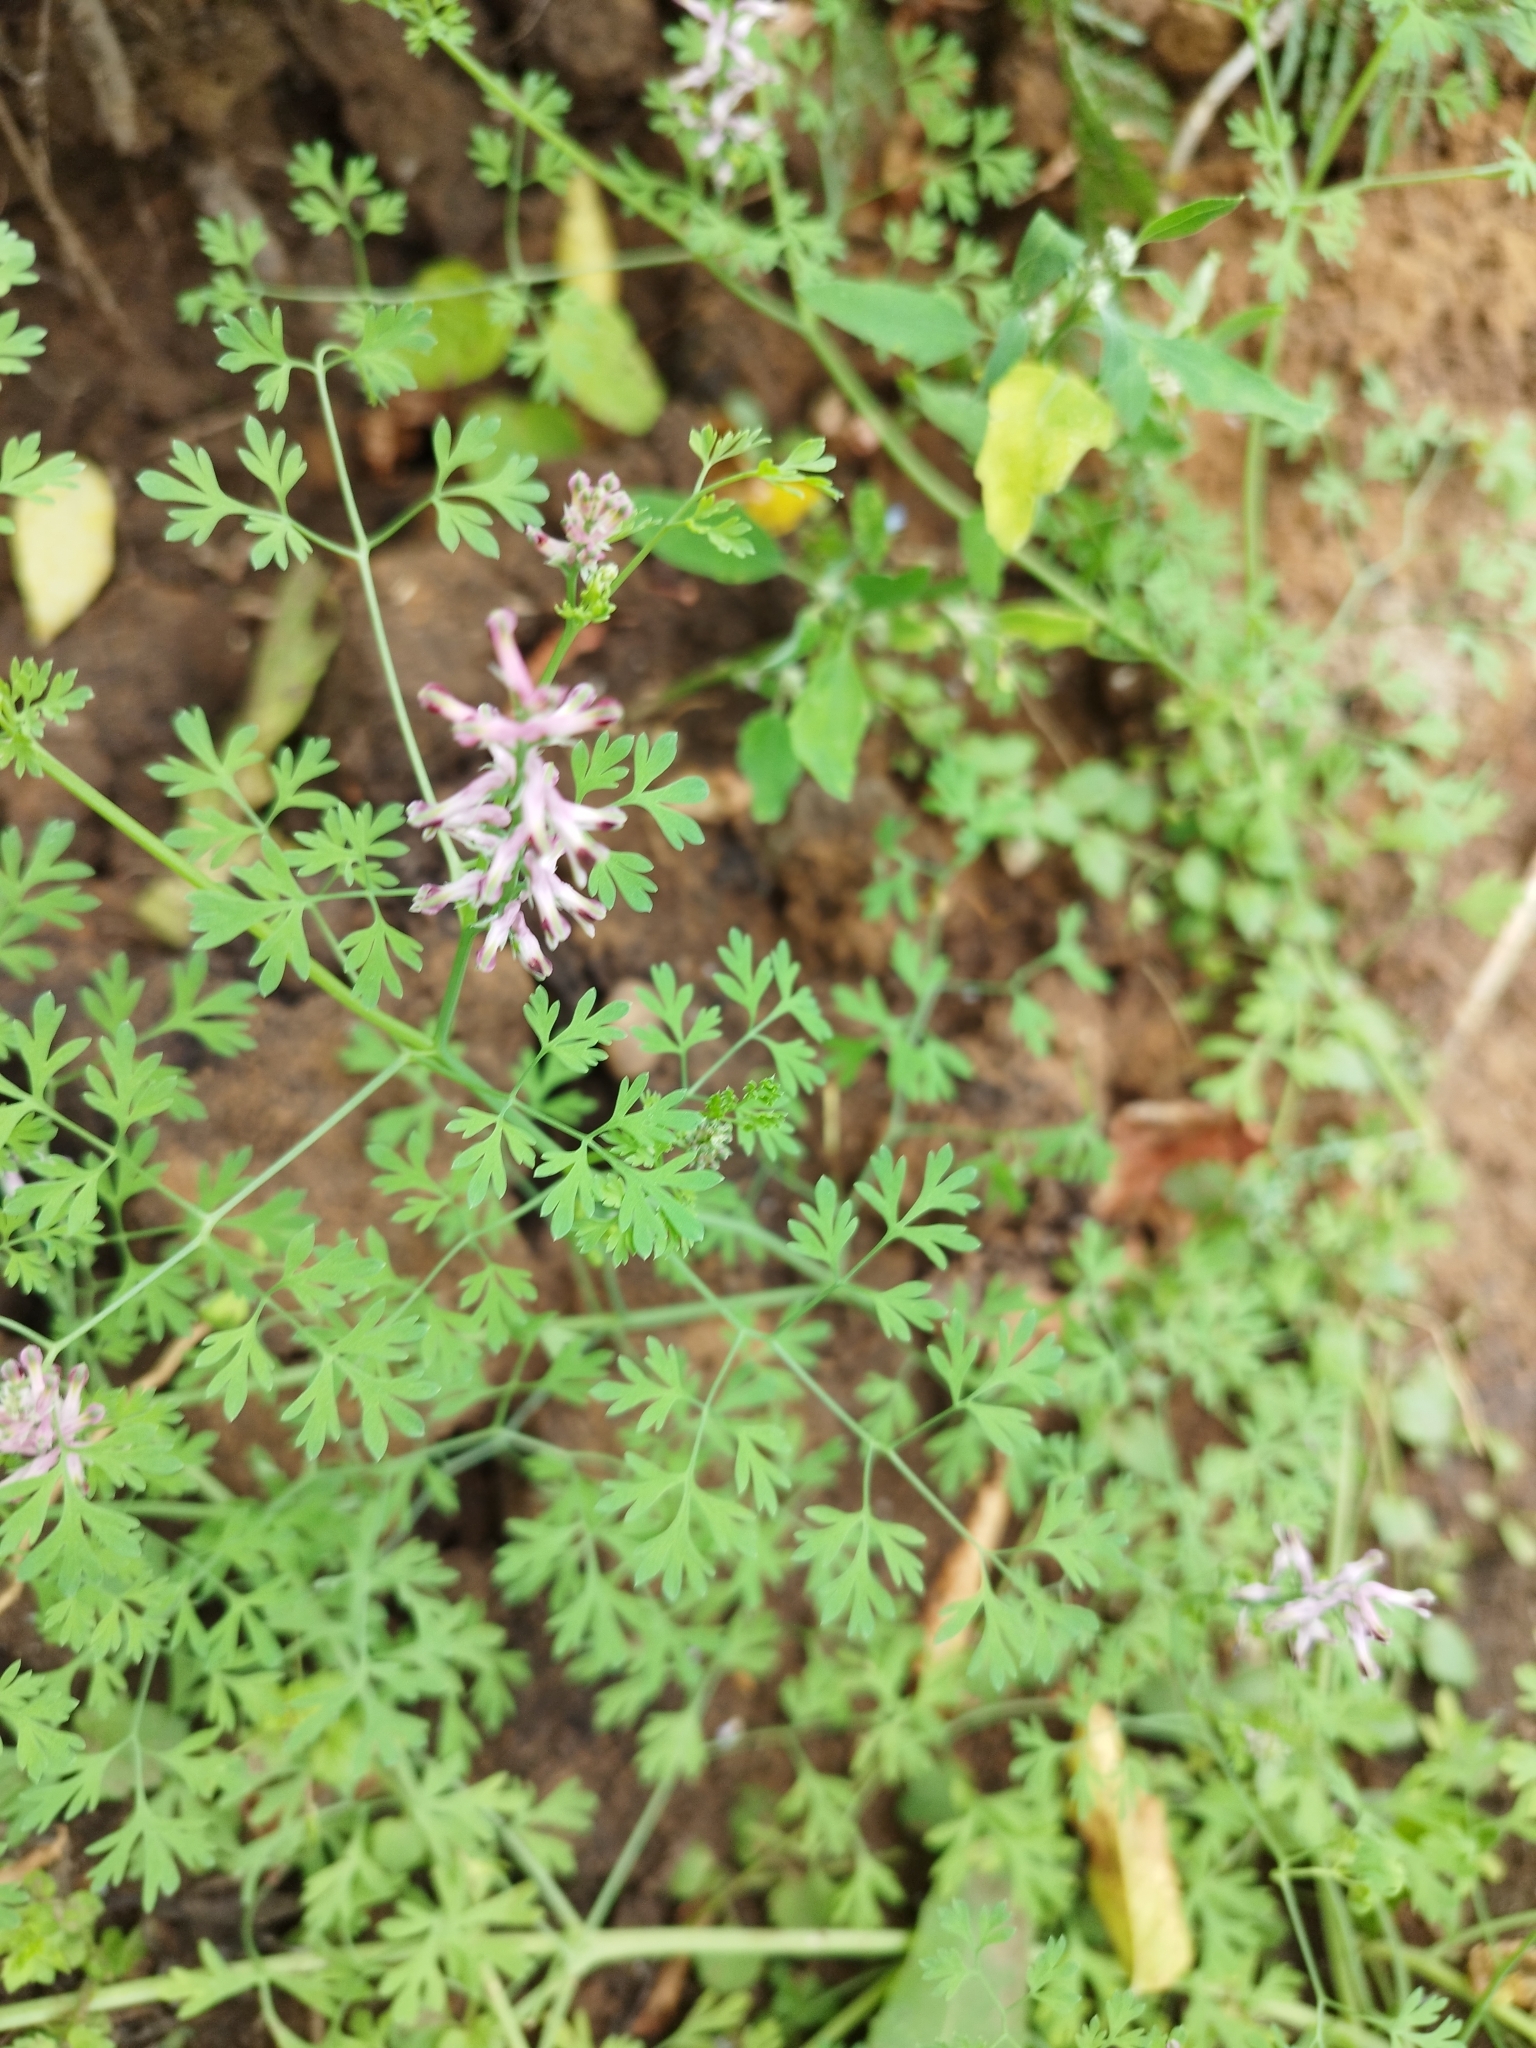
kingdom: Plantae
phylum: Tracheophyta
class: Magnoliopsida
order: Ranunculales
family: Papaveraceae
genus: Fumaria
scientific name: Fumaria officinalis
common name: Common fumitory
